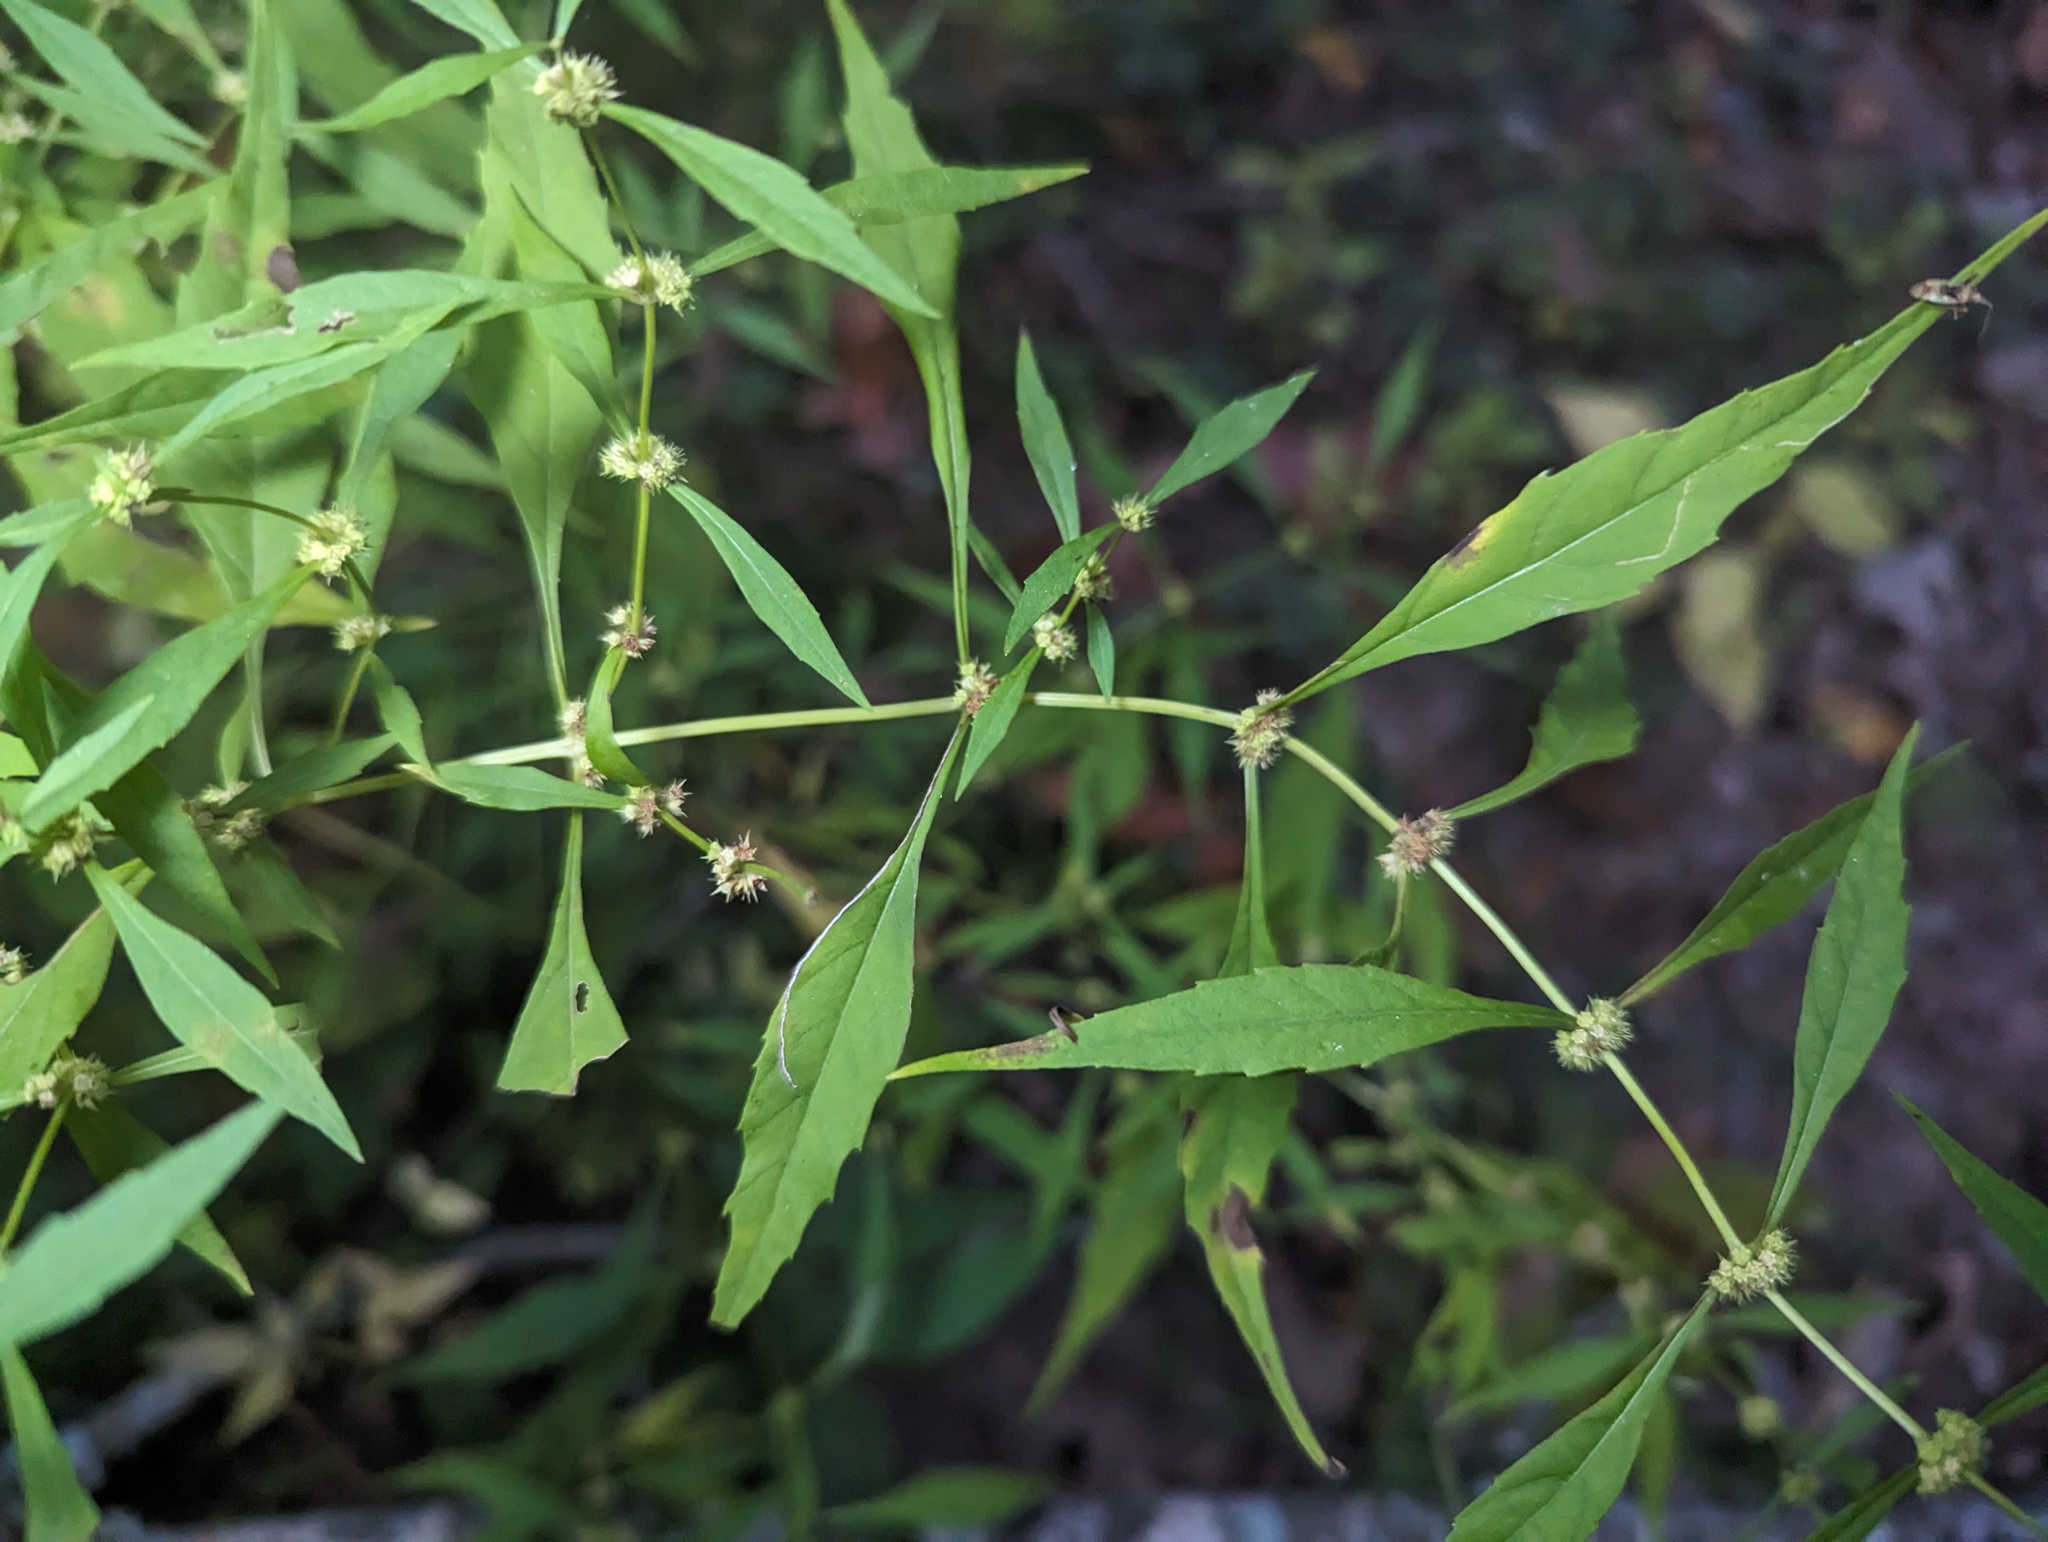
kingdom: Plantae
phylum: Tracheophyta
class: Magnoliopsida
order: Lamiales
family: Lamiaceae
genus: Lycopus
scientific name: Lycopus rubellus
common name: Stalked bugleweed
